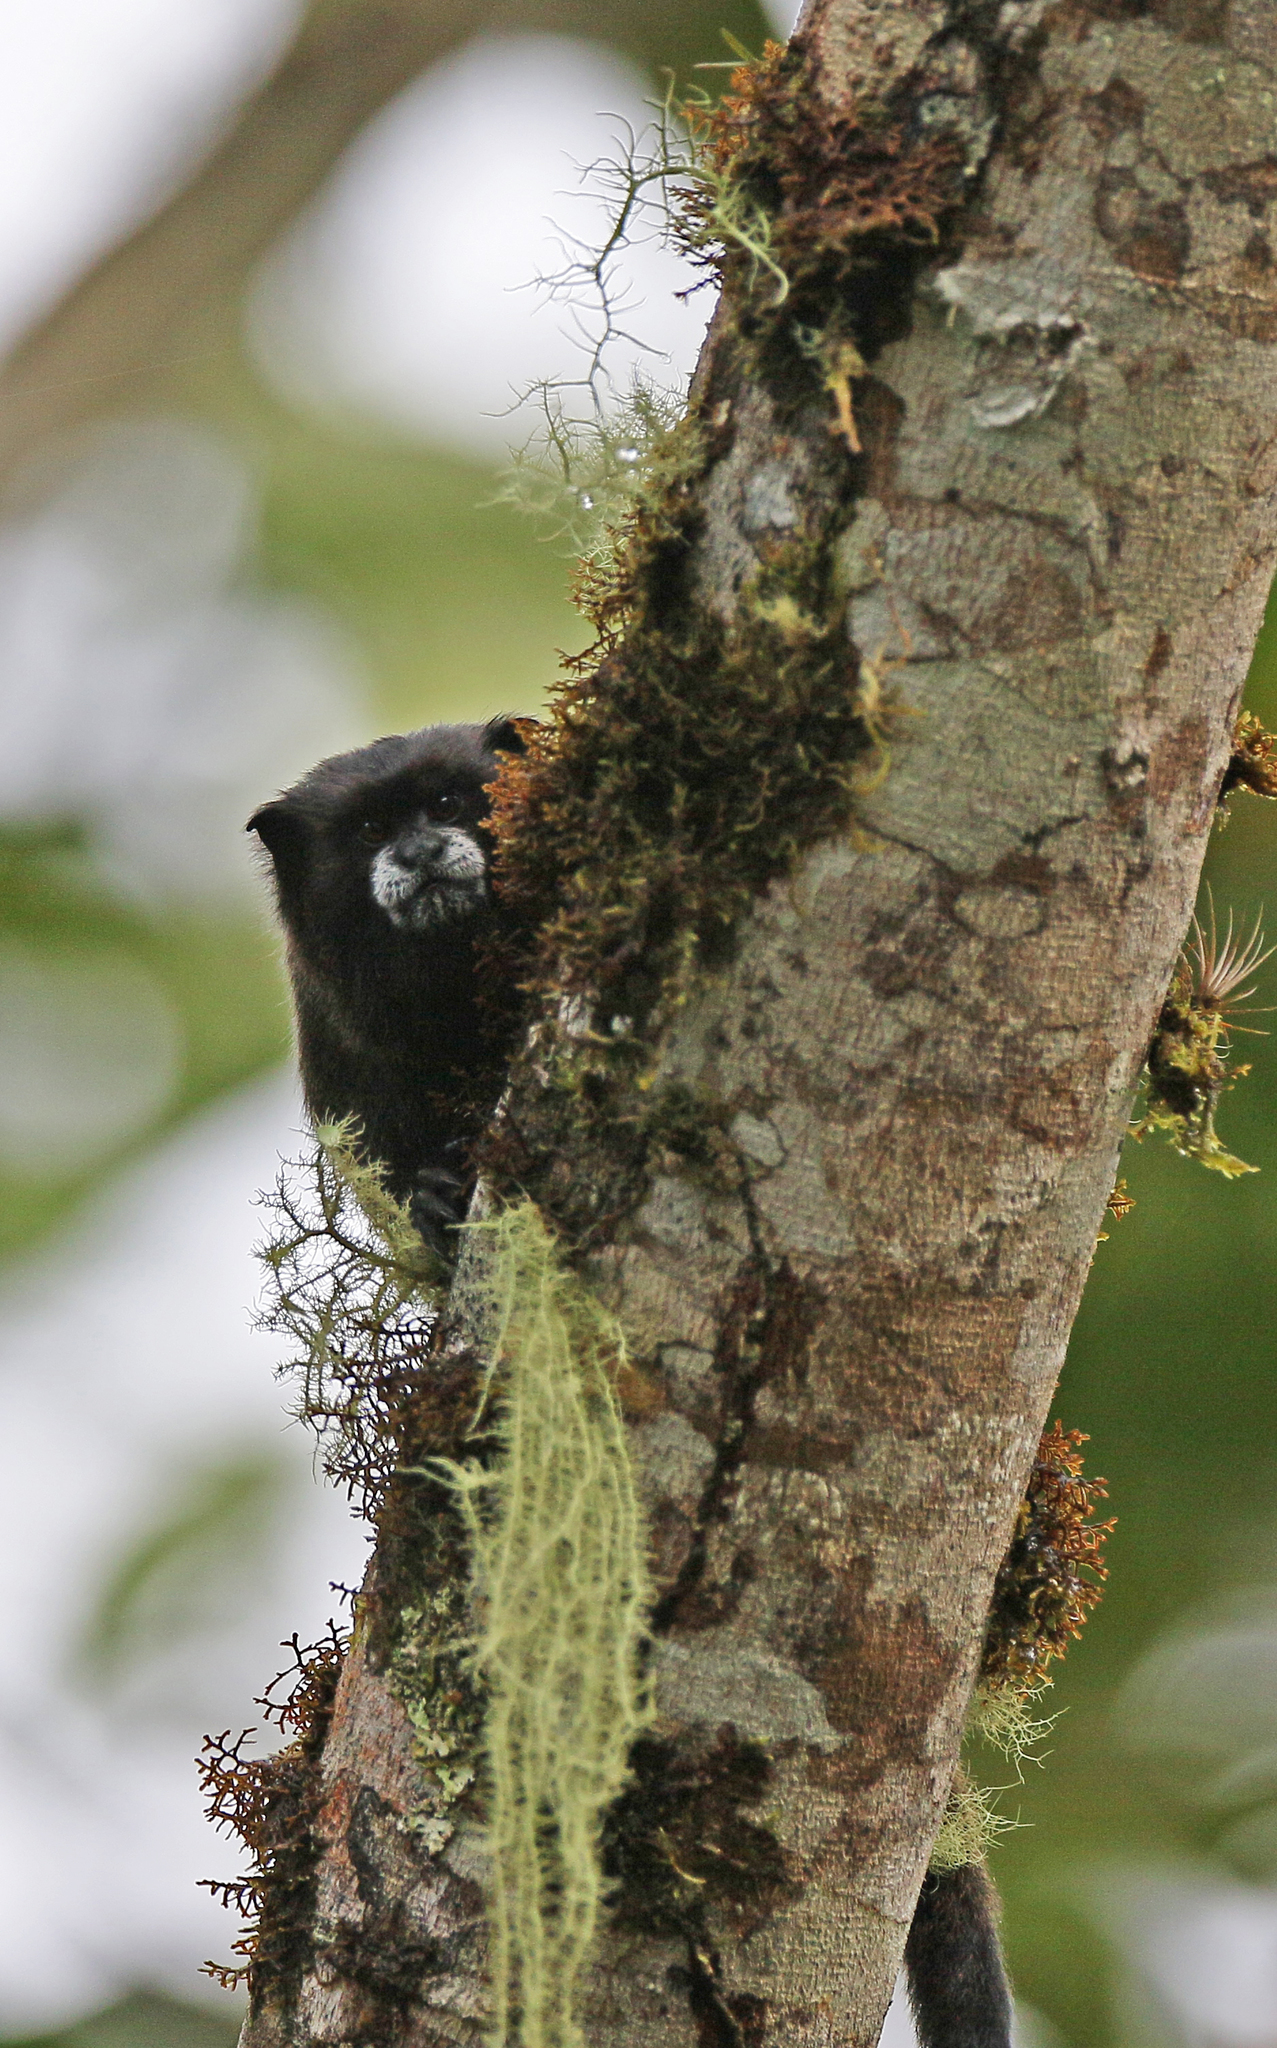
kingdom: Animalia
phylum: Chordata
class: Mammalia
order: Primates
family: Callitrichidae
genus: Leontocebus
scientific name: Leontocebus nigricollis
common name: Black-mantled tamarin
